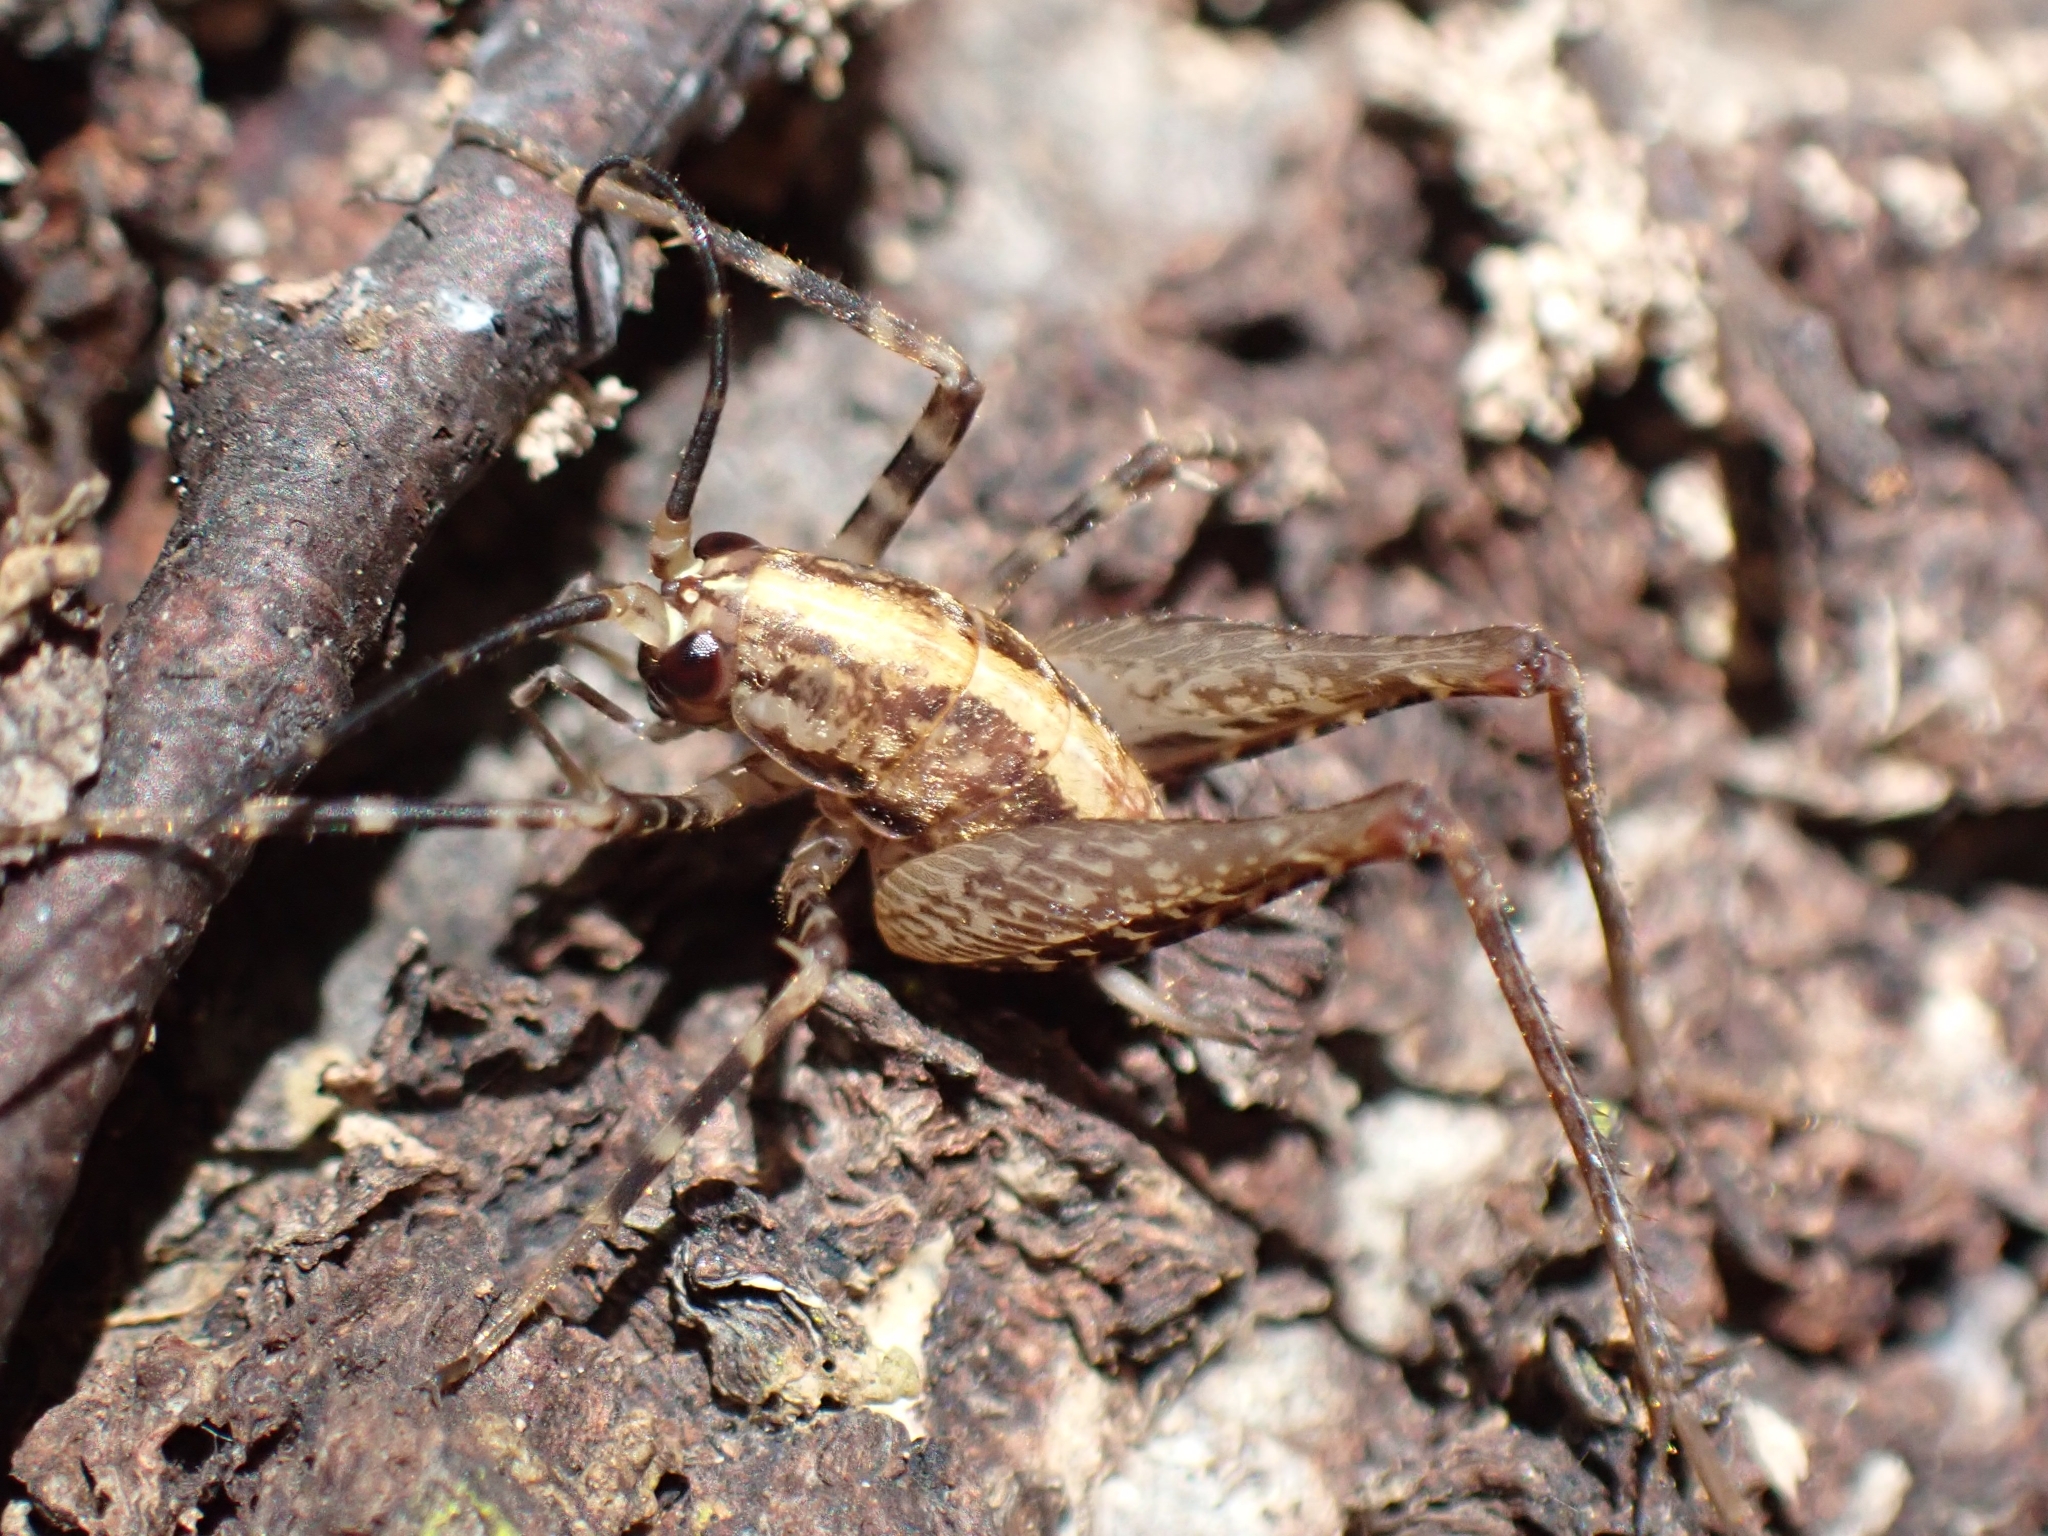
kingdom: Animalia
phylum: Arthropoda
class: Insecta
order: Orthoptera
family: Rhaphidophoridae
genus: Pleioplectron
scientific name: Pleioplectron hudsoni
